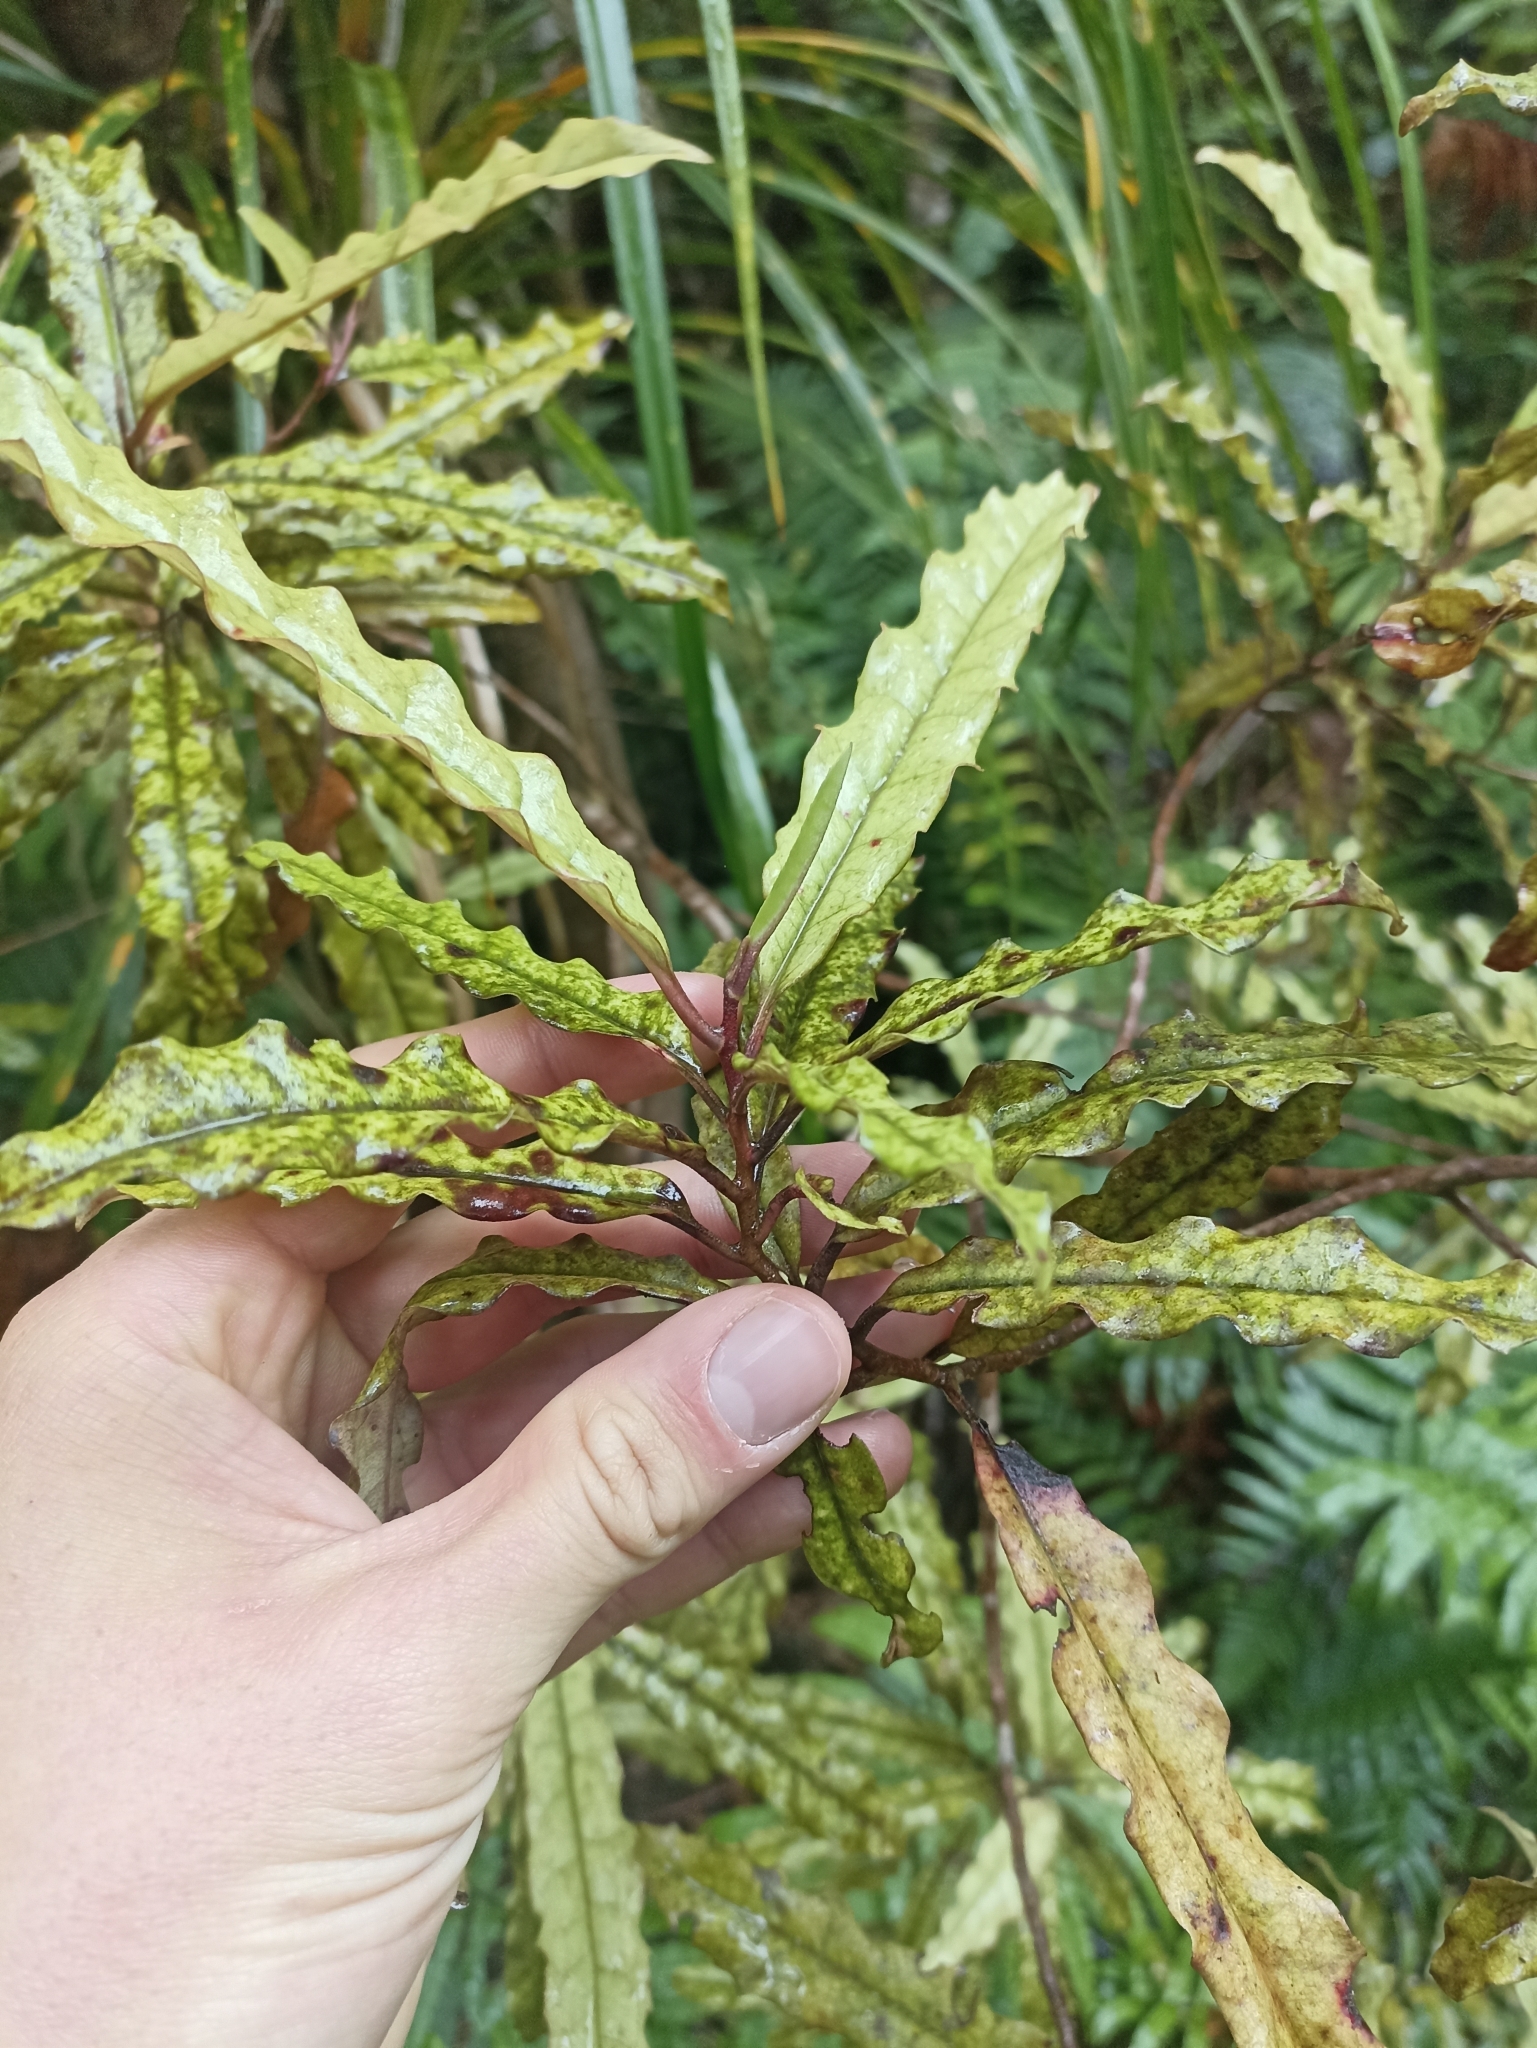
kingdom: Plantae
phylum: Tracheophyta
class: Magnoliopsida
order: Paracryphiales
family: Paracryphiaceae
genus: Quintinia
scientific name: Quintinia serrata
